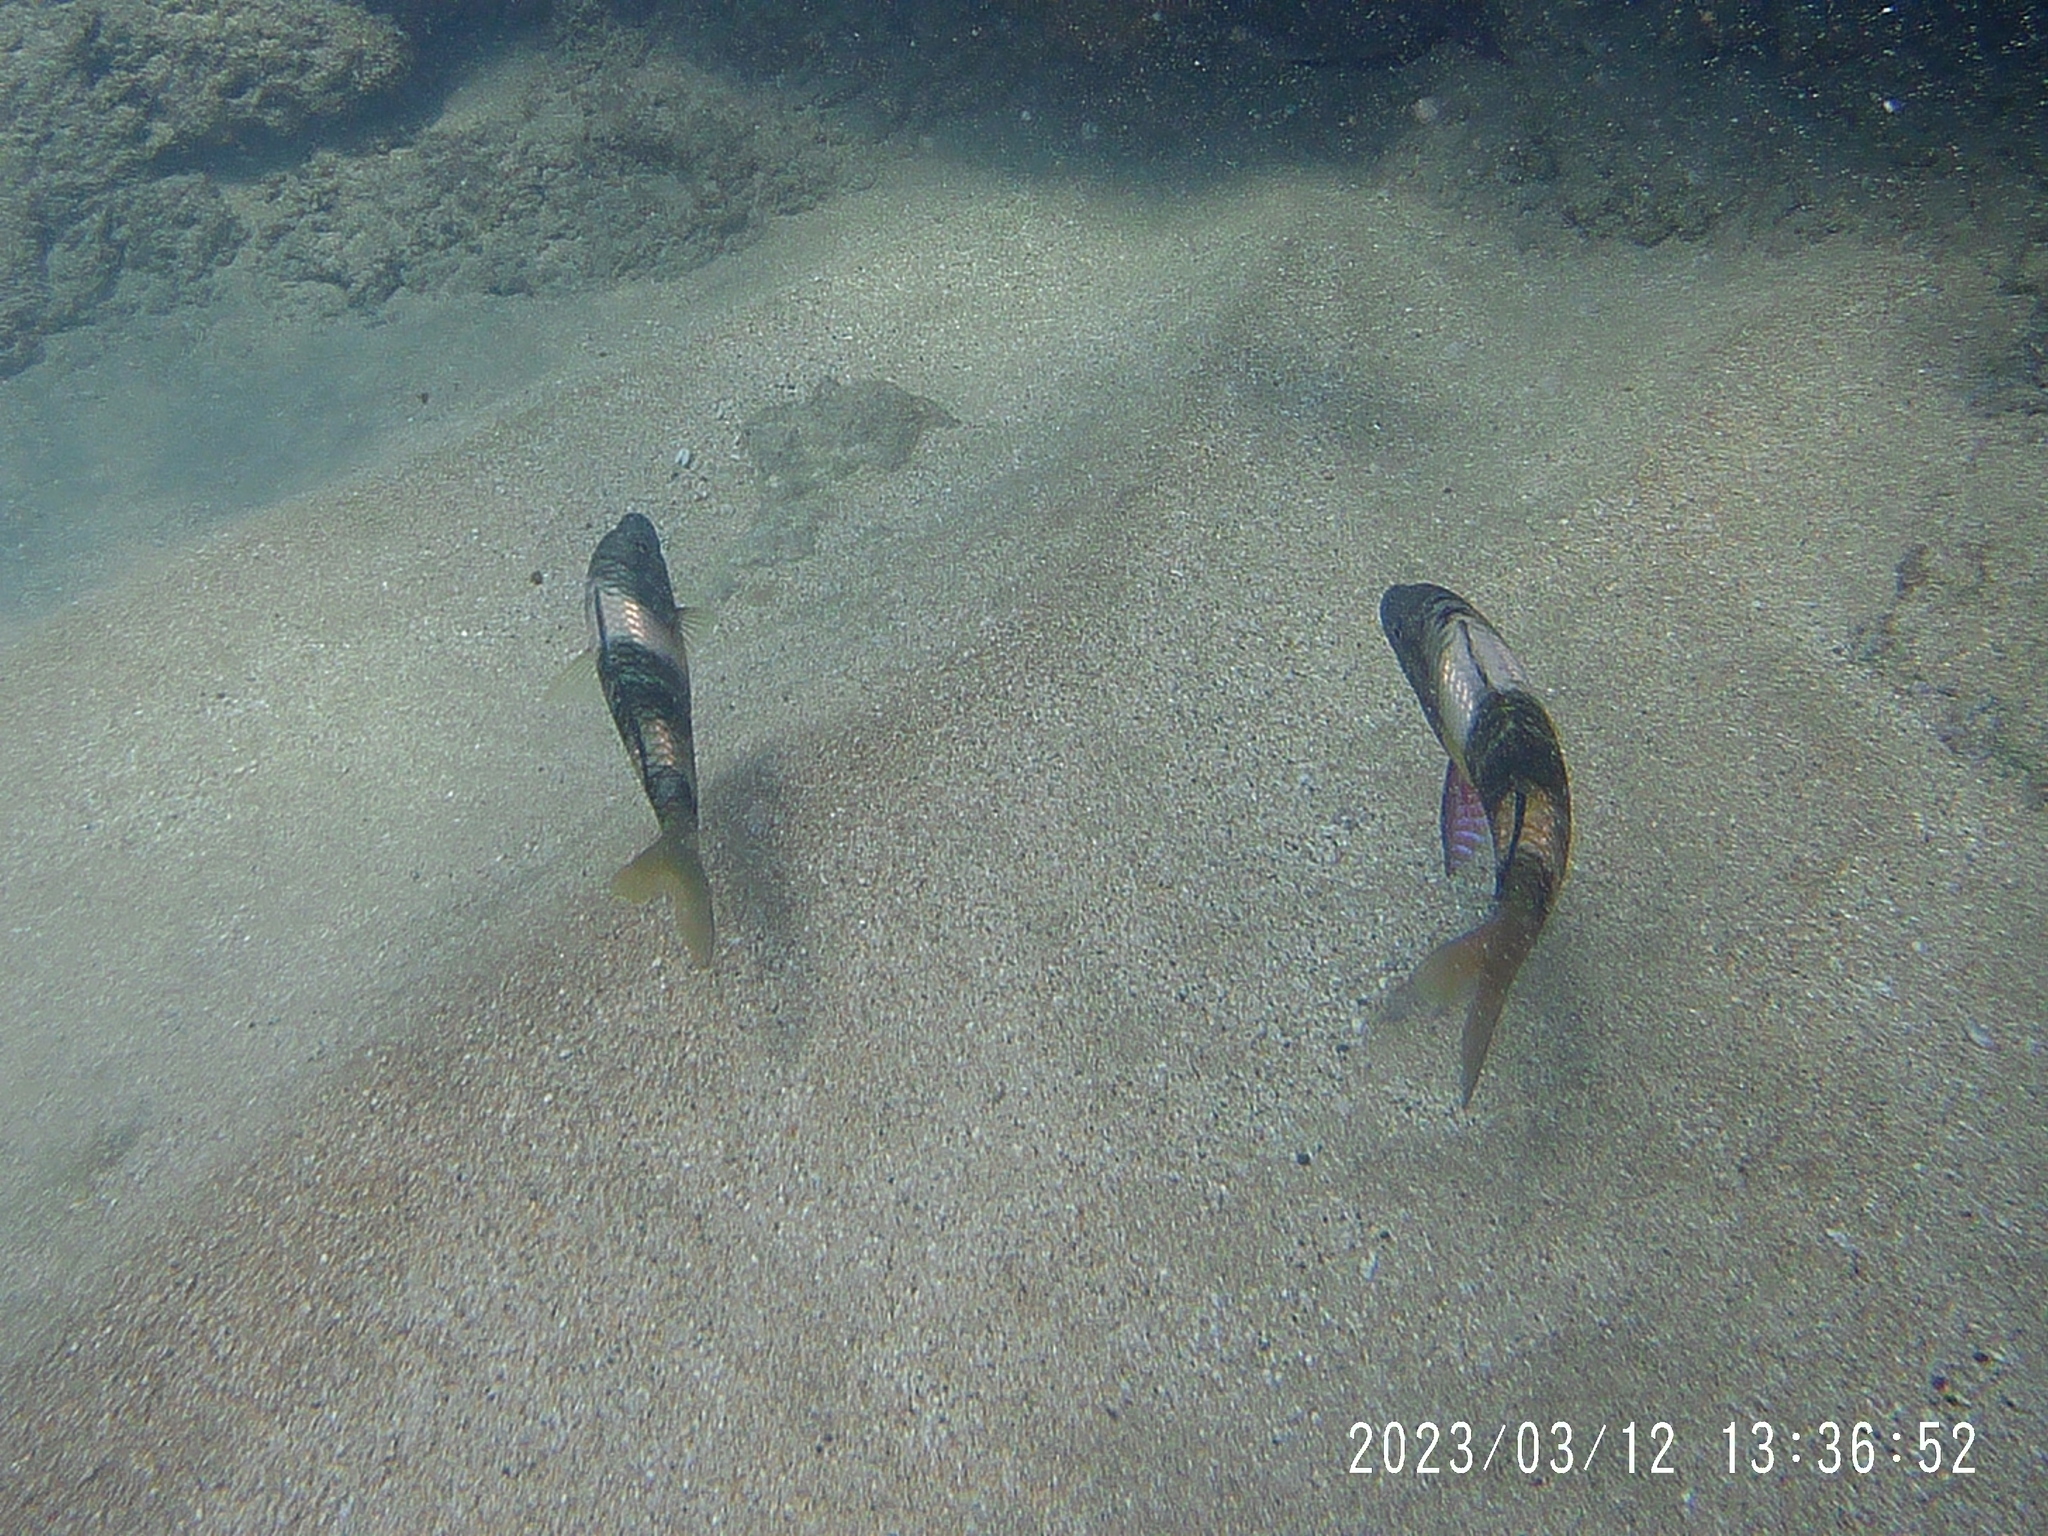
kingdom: Animalia
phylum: Chordata
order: Perciformes
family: Mullidae
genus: Parupeneus
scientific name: Parupeneus multifasciatus
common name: Manybar goatfish
